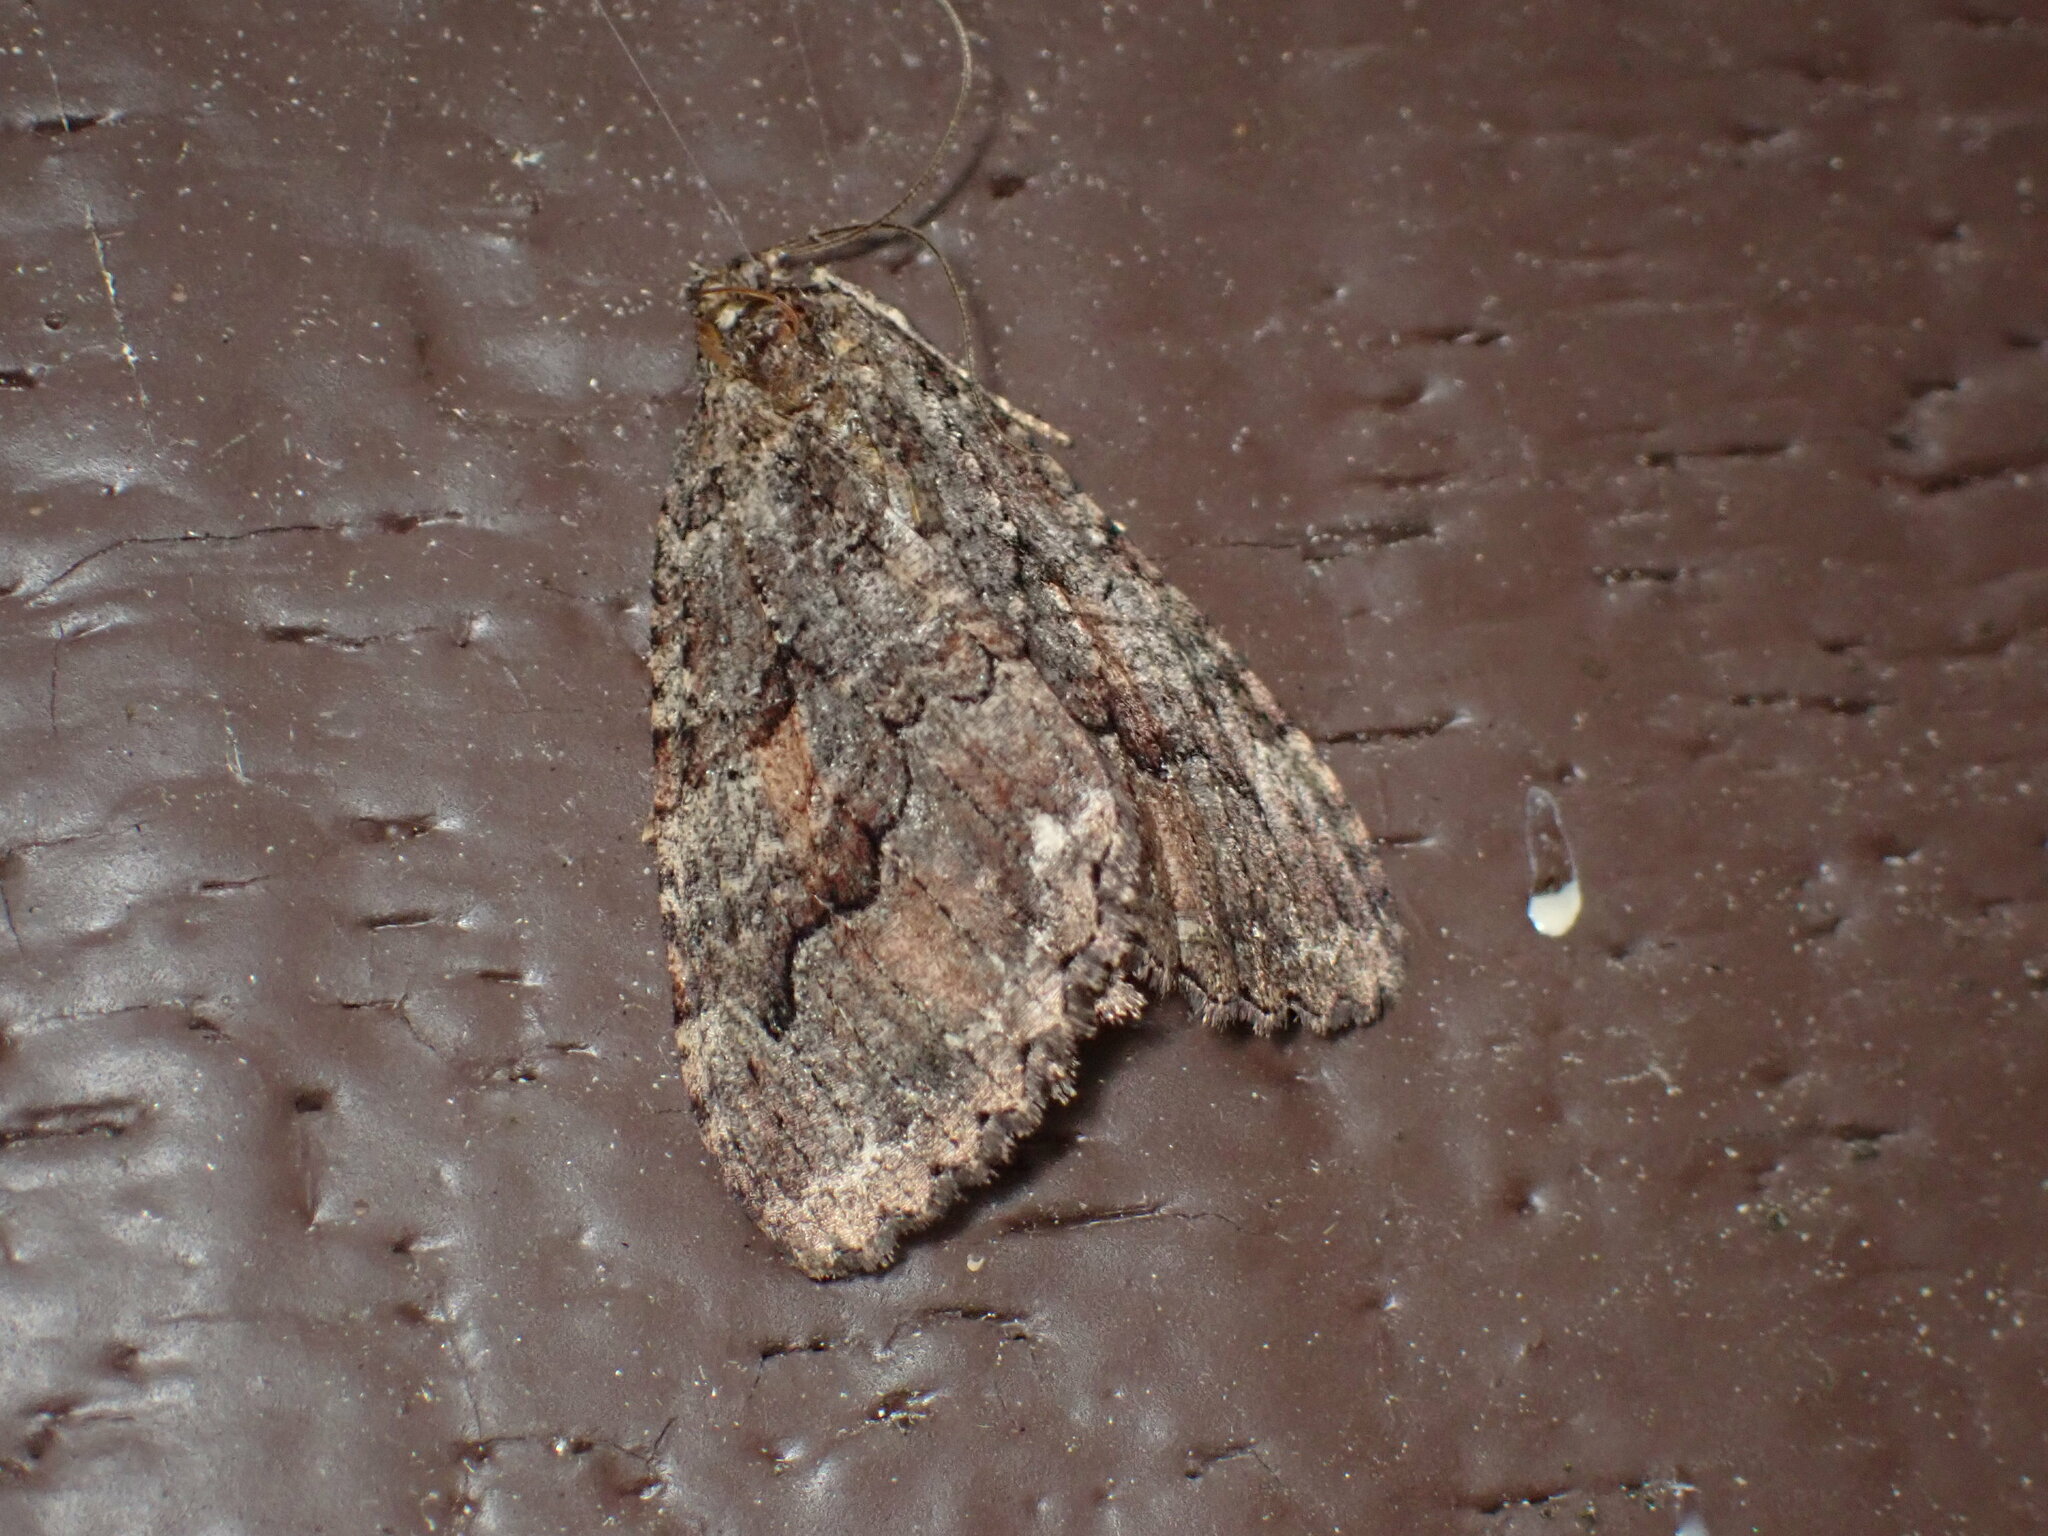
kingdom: Animalia
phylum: Arthropoda
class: Insecta
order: Lepidoptera
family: Geometridae
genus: Triphosa
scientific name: Triphosa haesitata
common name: Tissue moth
